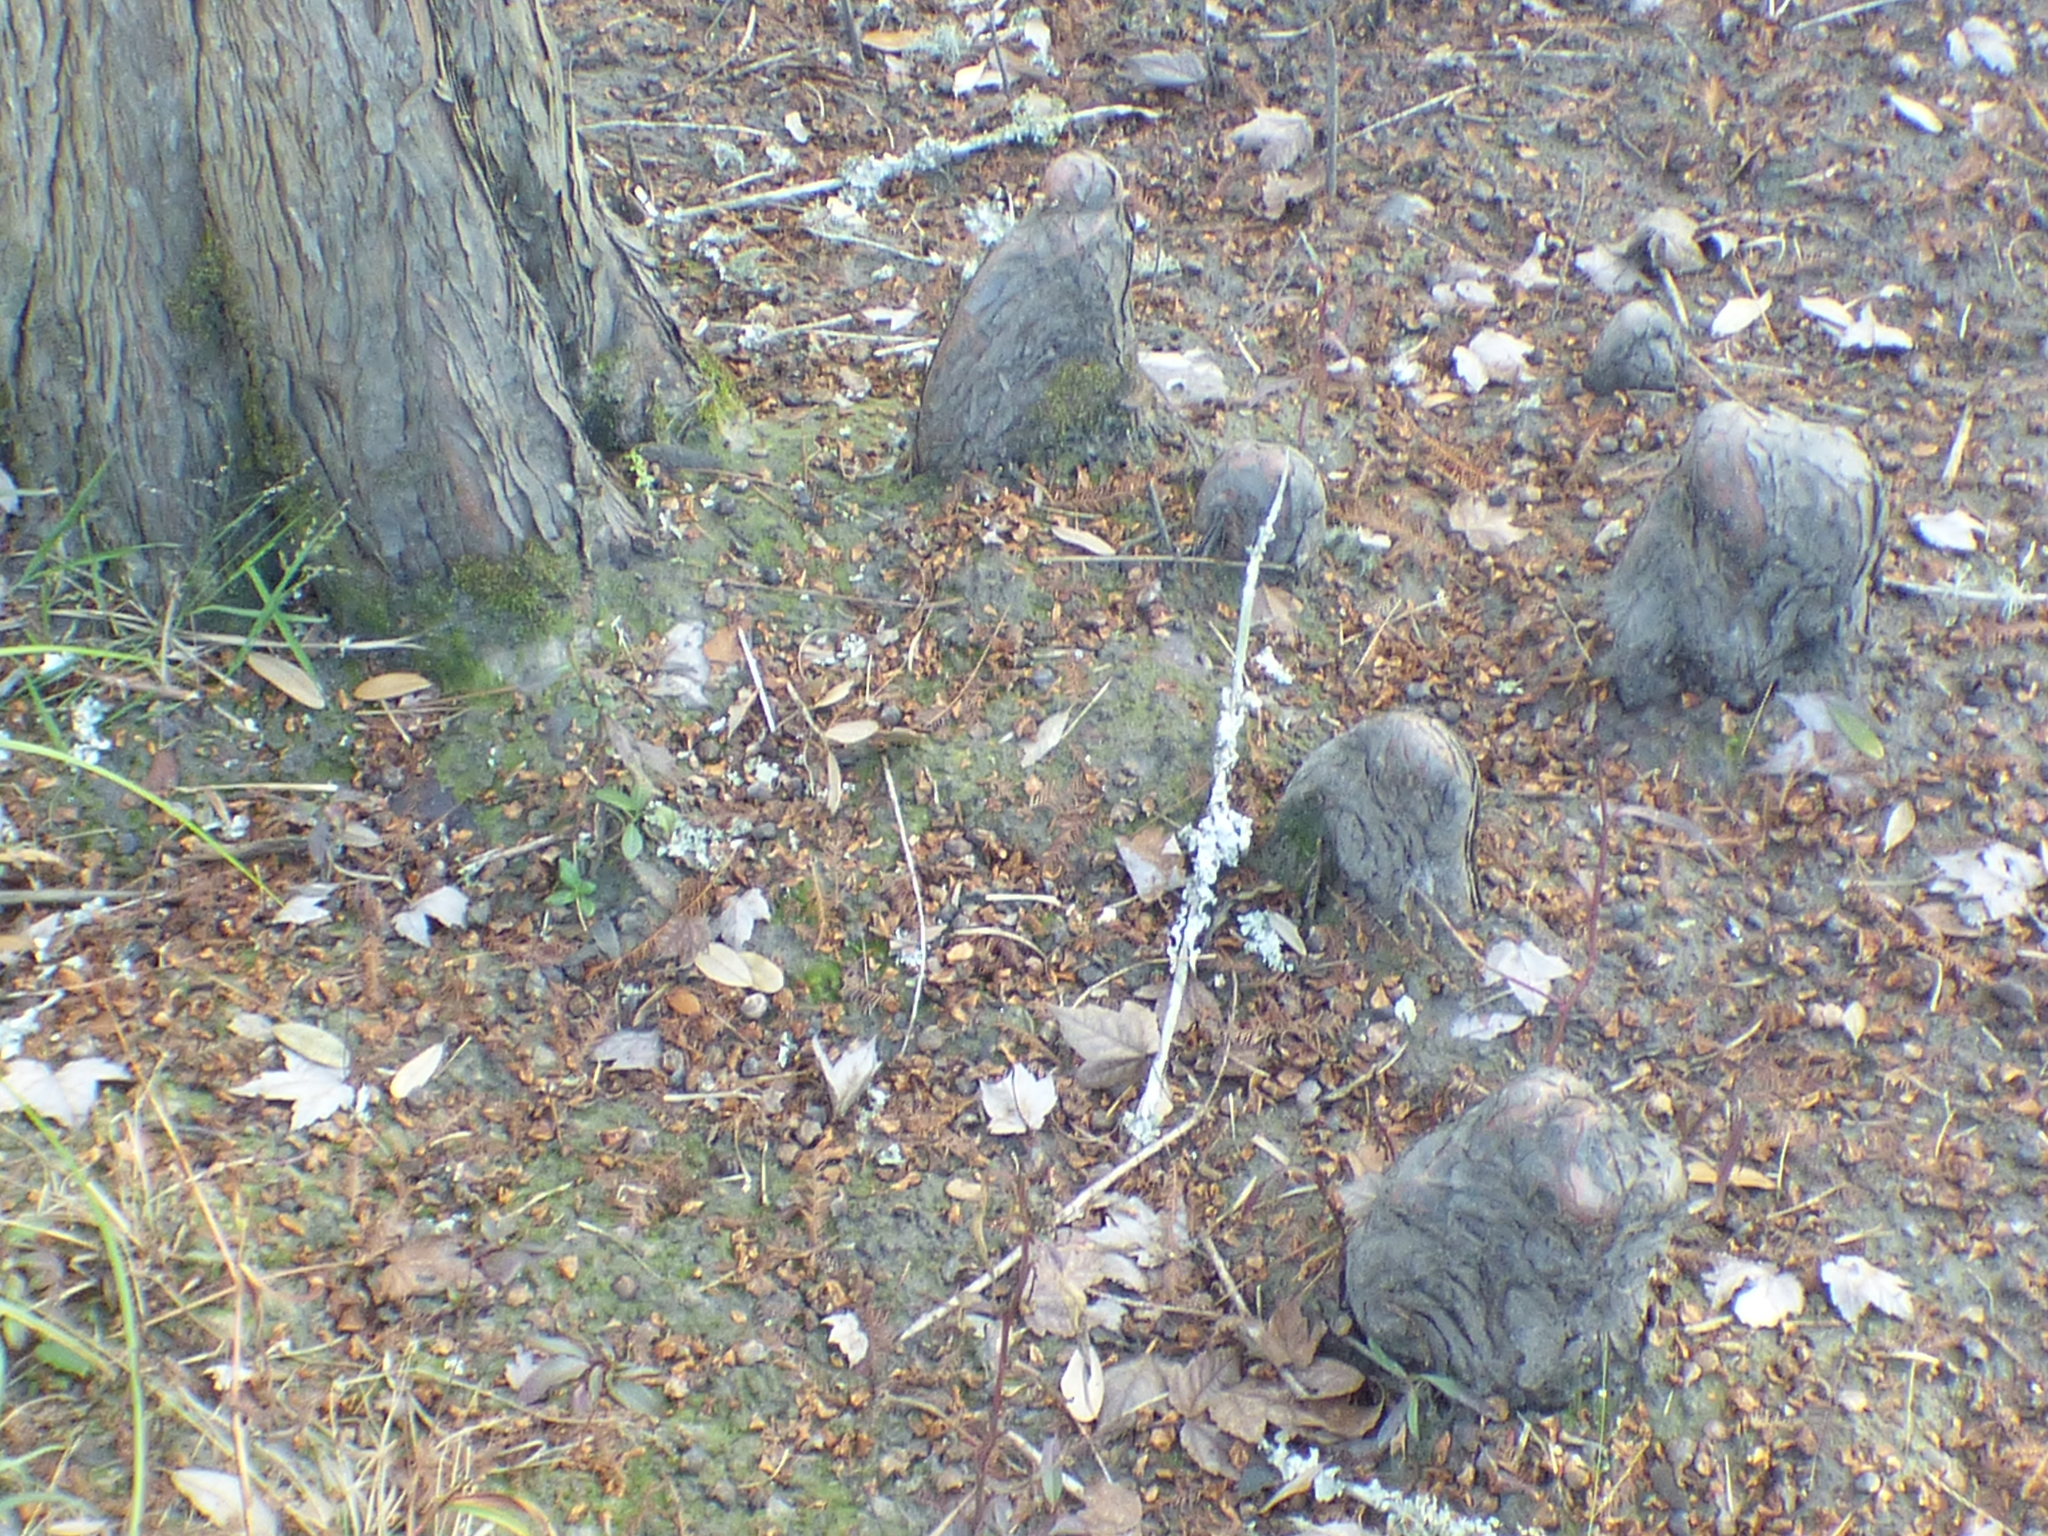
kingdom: Plantae
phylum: Tracheophyta
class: Pinopsida
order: Pinales
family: Cupressaceae
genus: Taxodium
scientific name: Taxodium distichum
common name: Bald cypress
